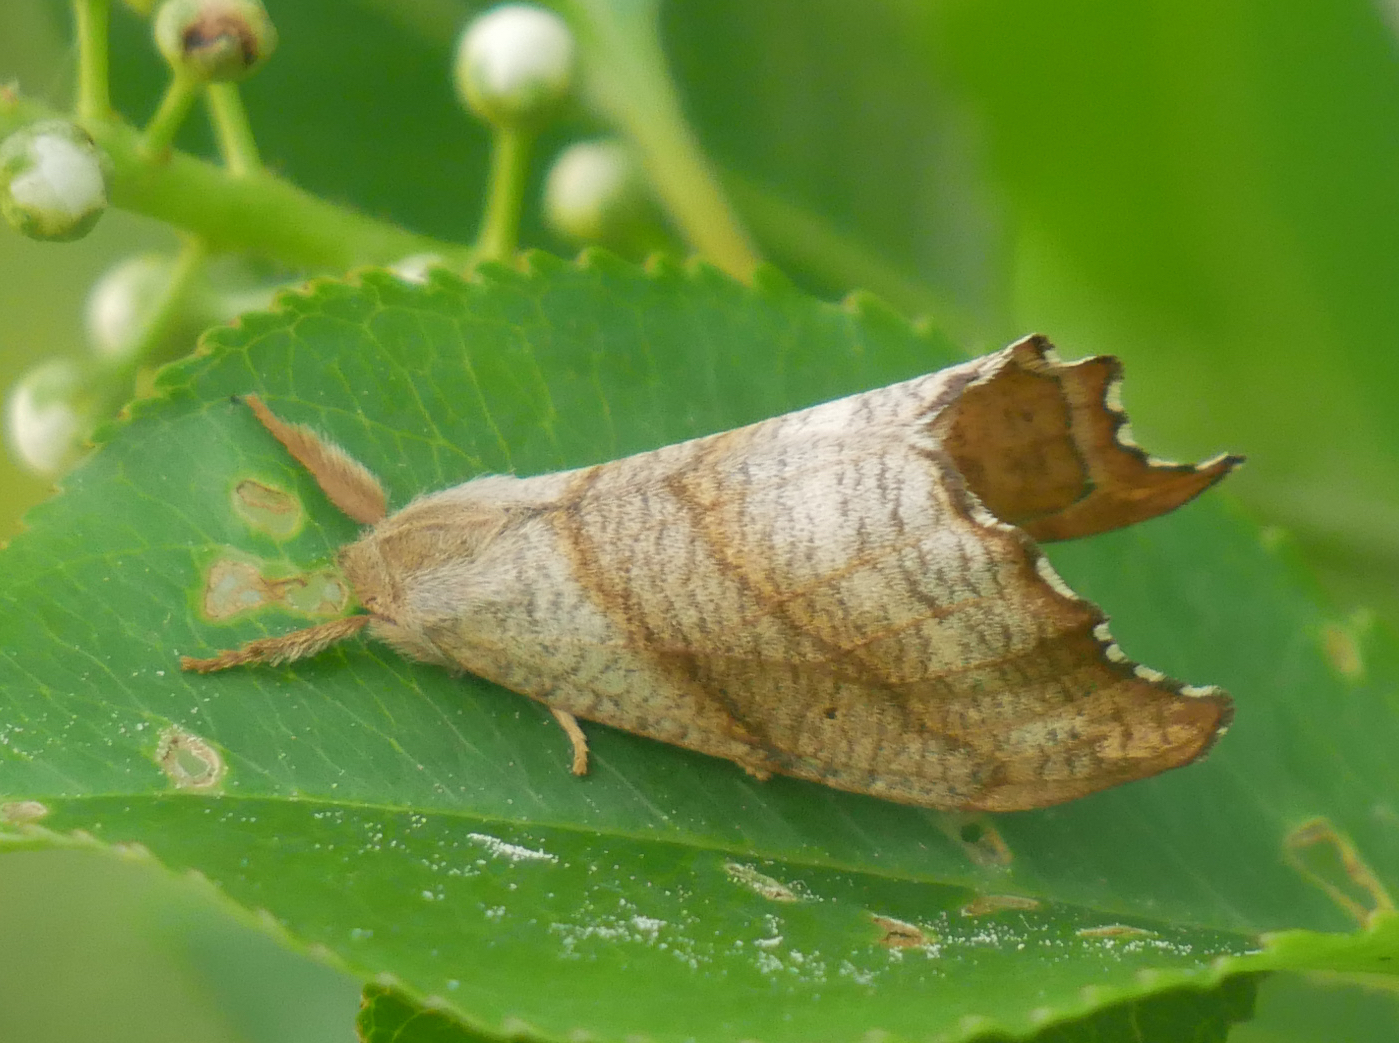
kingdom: Animalia
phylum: Arthropoda
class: Insecta
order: Lepidoptera
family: Drepanidae
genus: Falcaria
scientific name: Falcaria lacertinaria
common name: Scalloped hook-tip
